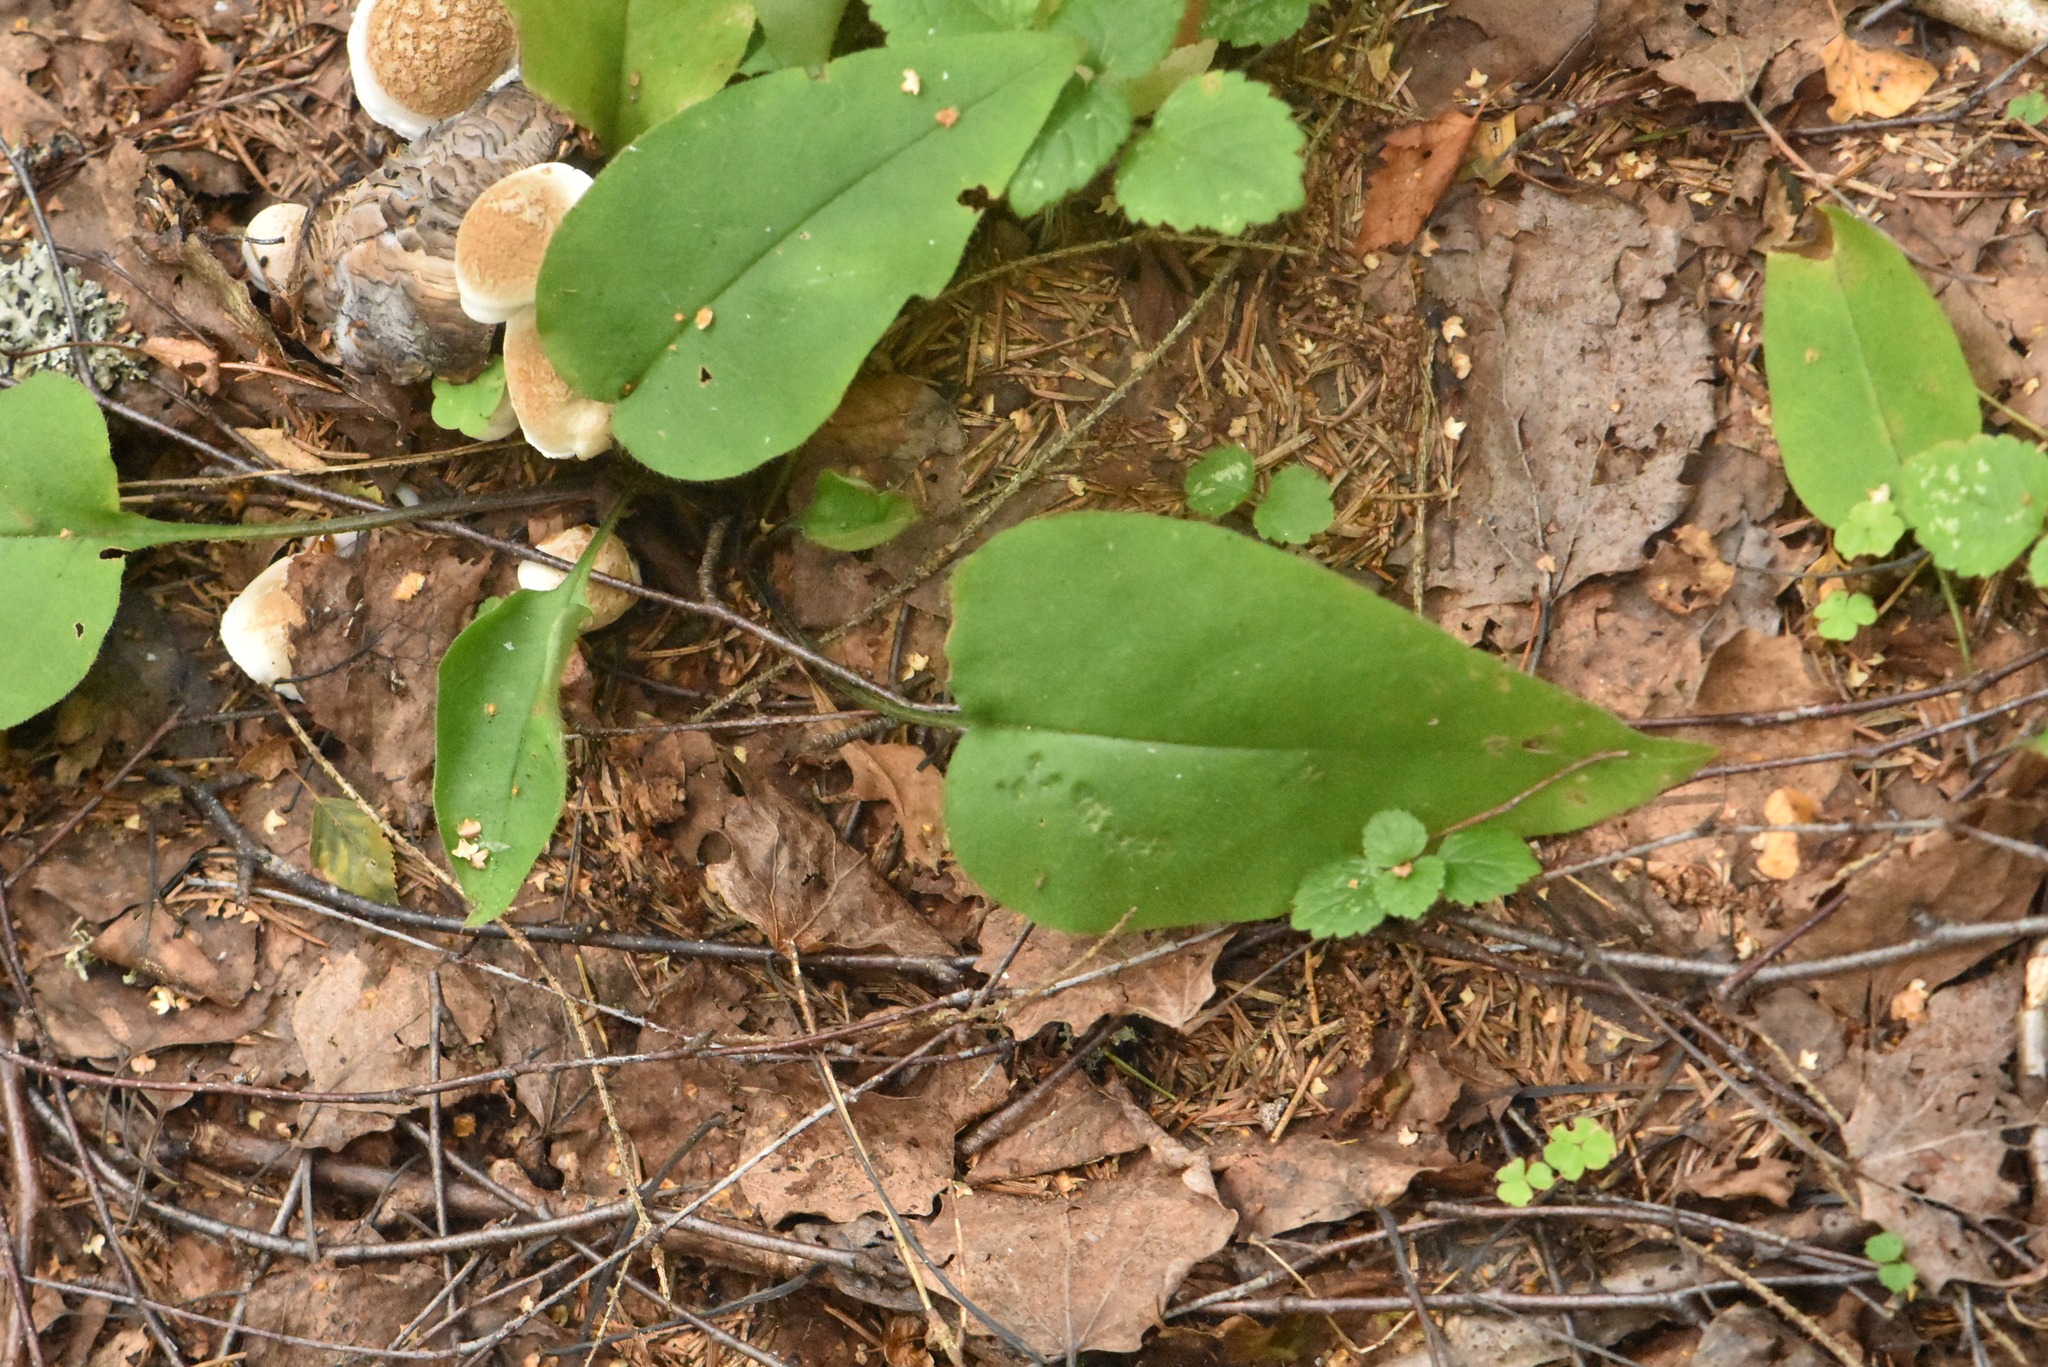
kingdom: Plantae
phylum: Tracheophyta
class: Magnoliopsida
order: Boraginales
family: Boraginaceae
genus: Pulmonaria
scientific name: Pulmonaria obscura
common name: Suffolk lungwort
